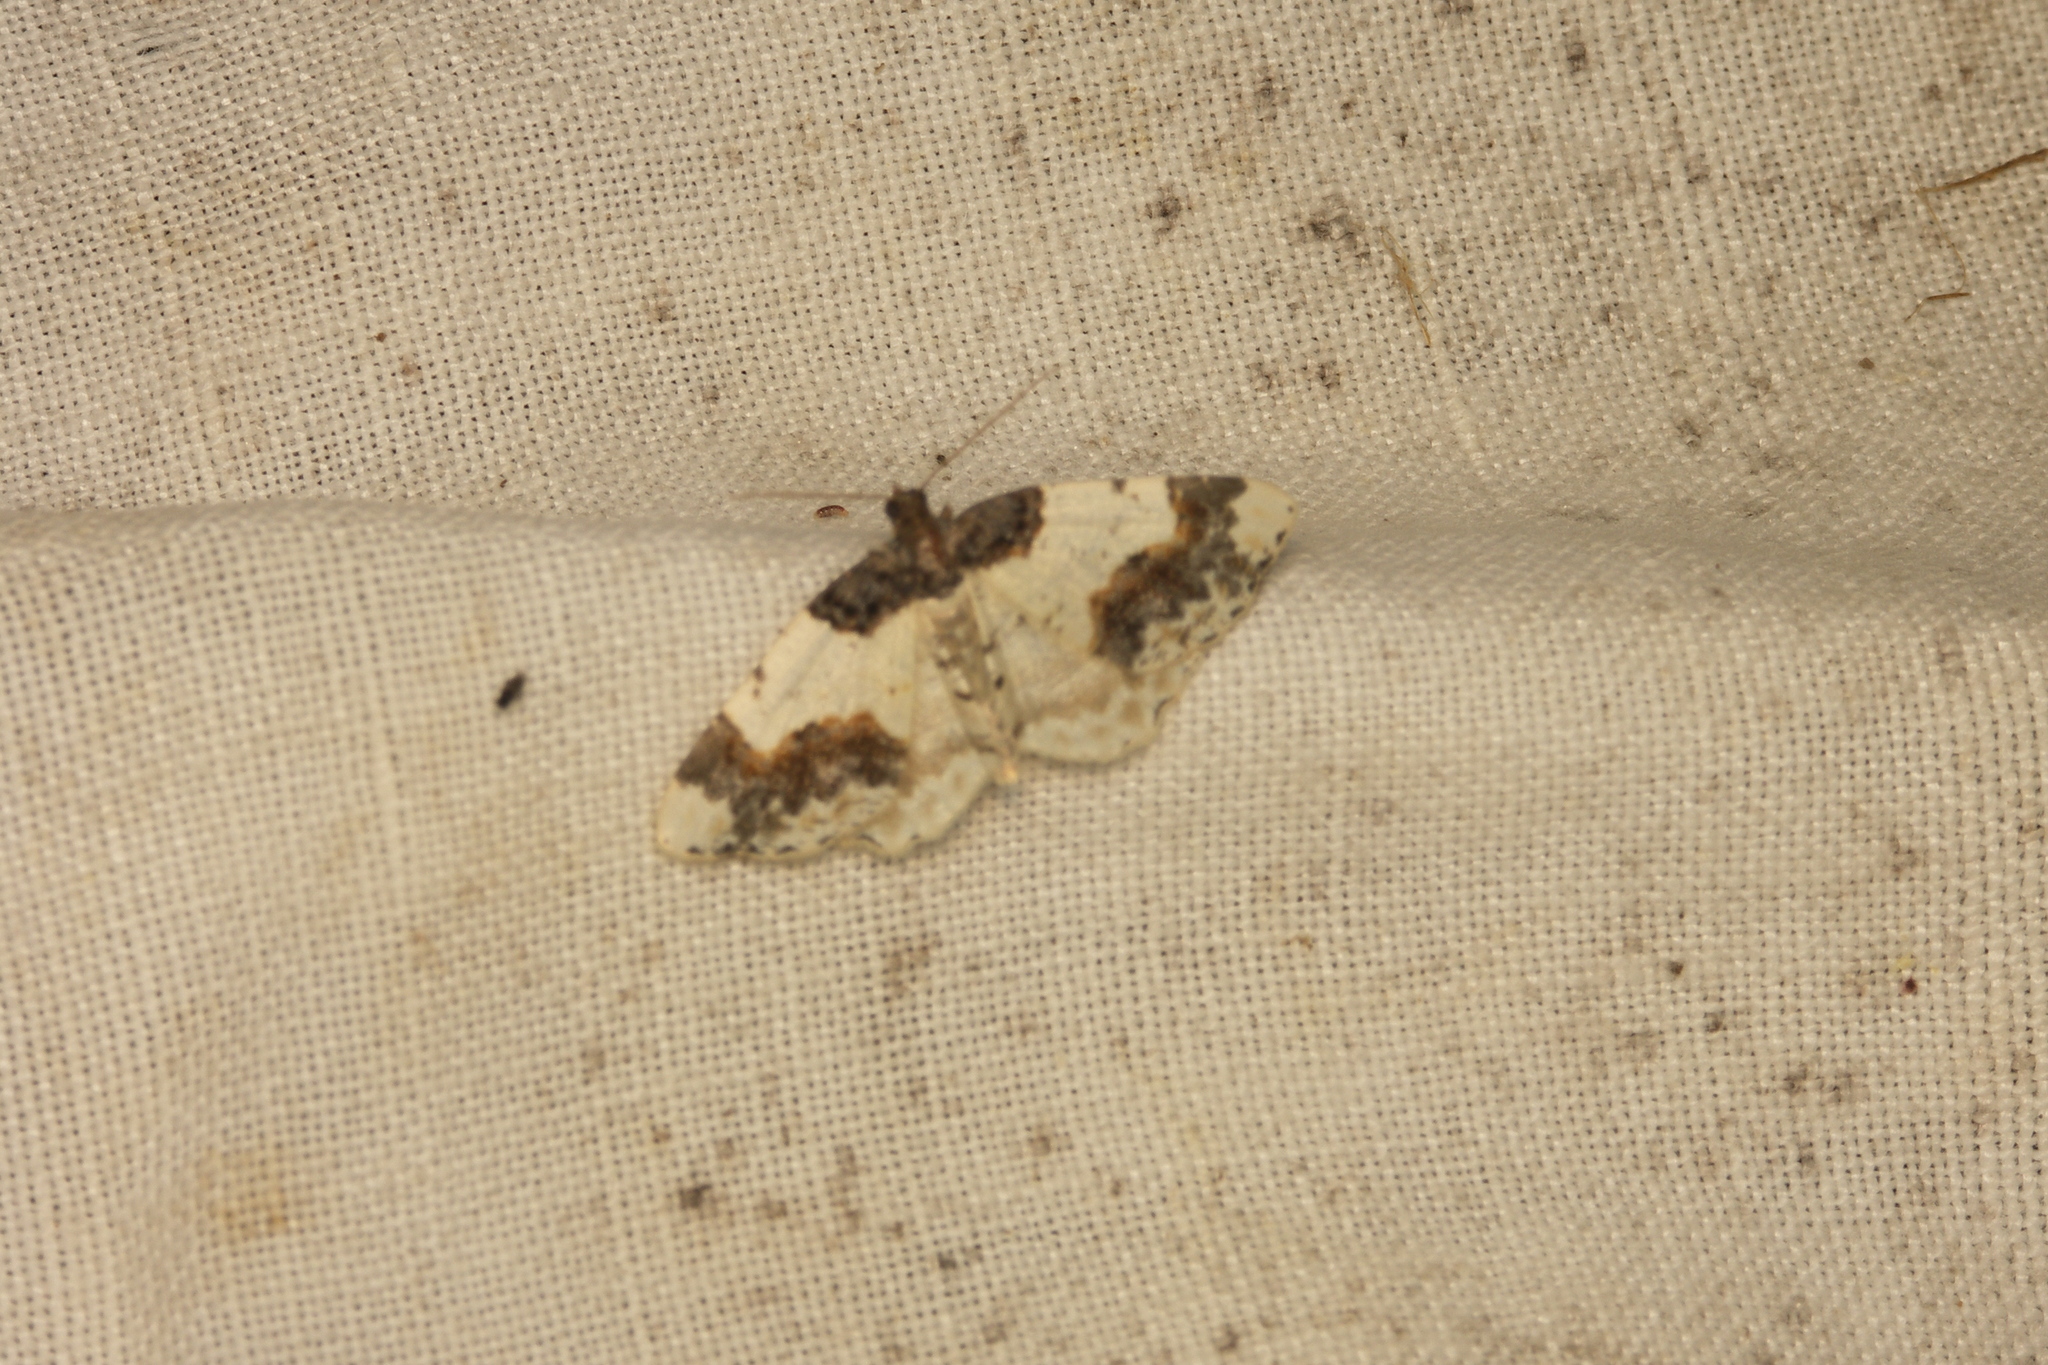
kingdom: Animalia
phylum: Arthropoda
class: Insecta
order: Lepidoptera
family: Geometridae
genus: Ligdia
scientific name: Ligdia adustata
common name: Scorched carpet
